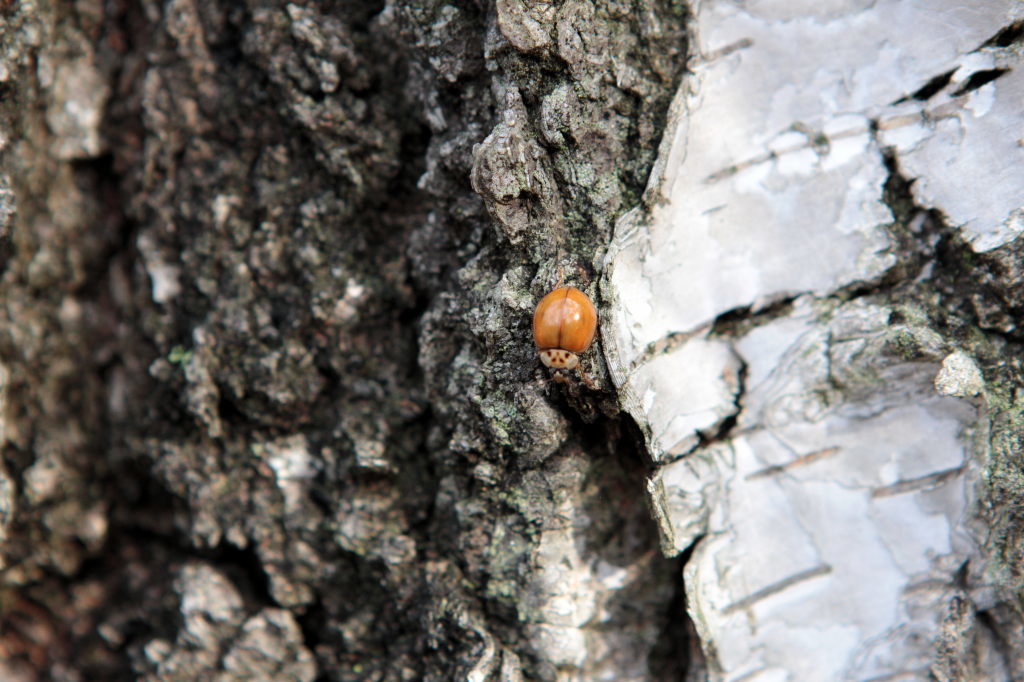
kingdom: Animalia
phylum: Arthropoda
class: Insecta
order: Coleoptera
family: Coccinellidae
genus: Harmonia
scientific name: Harmonia axyridis
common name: Harlequin ladybird
